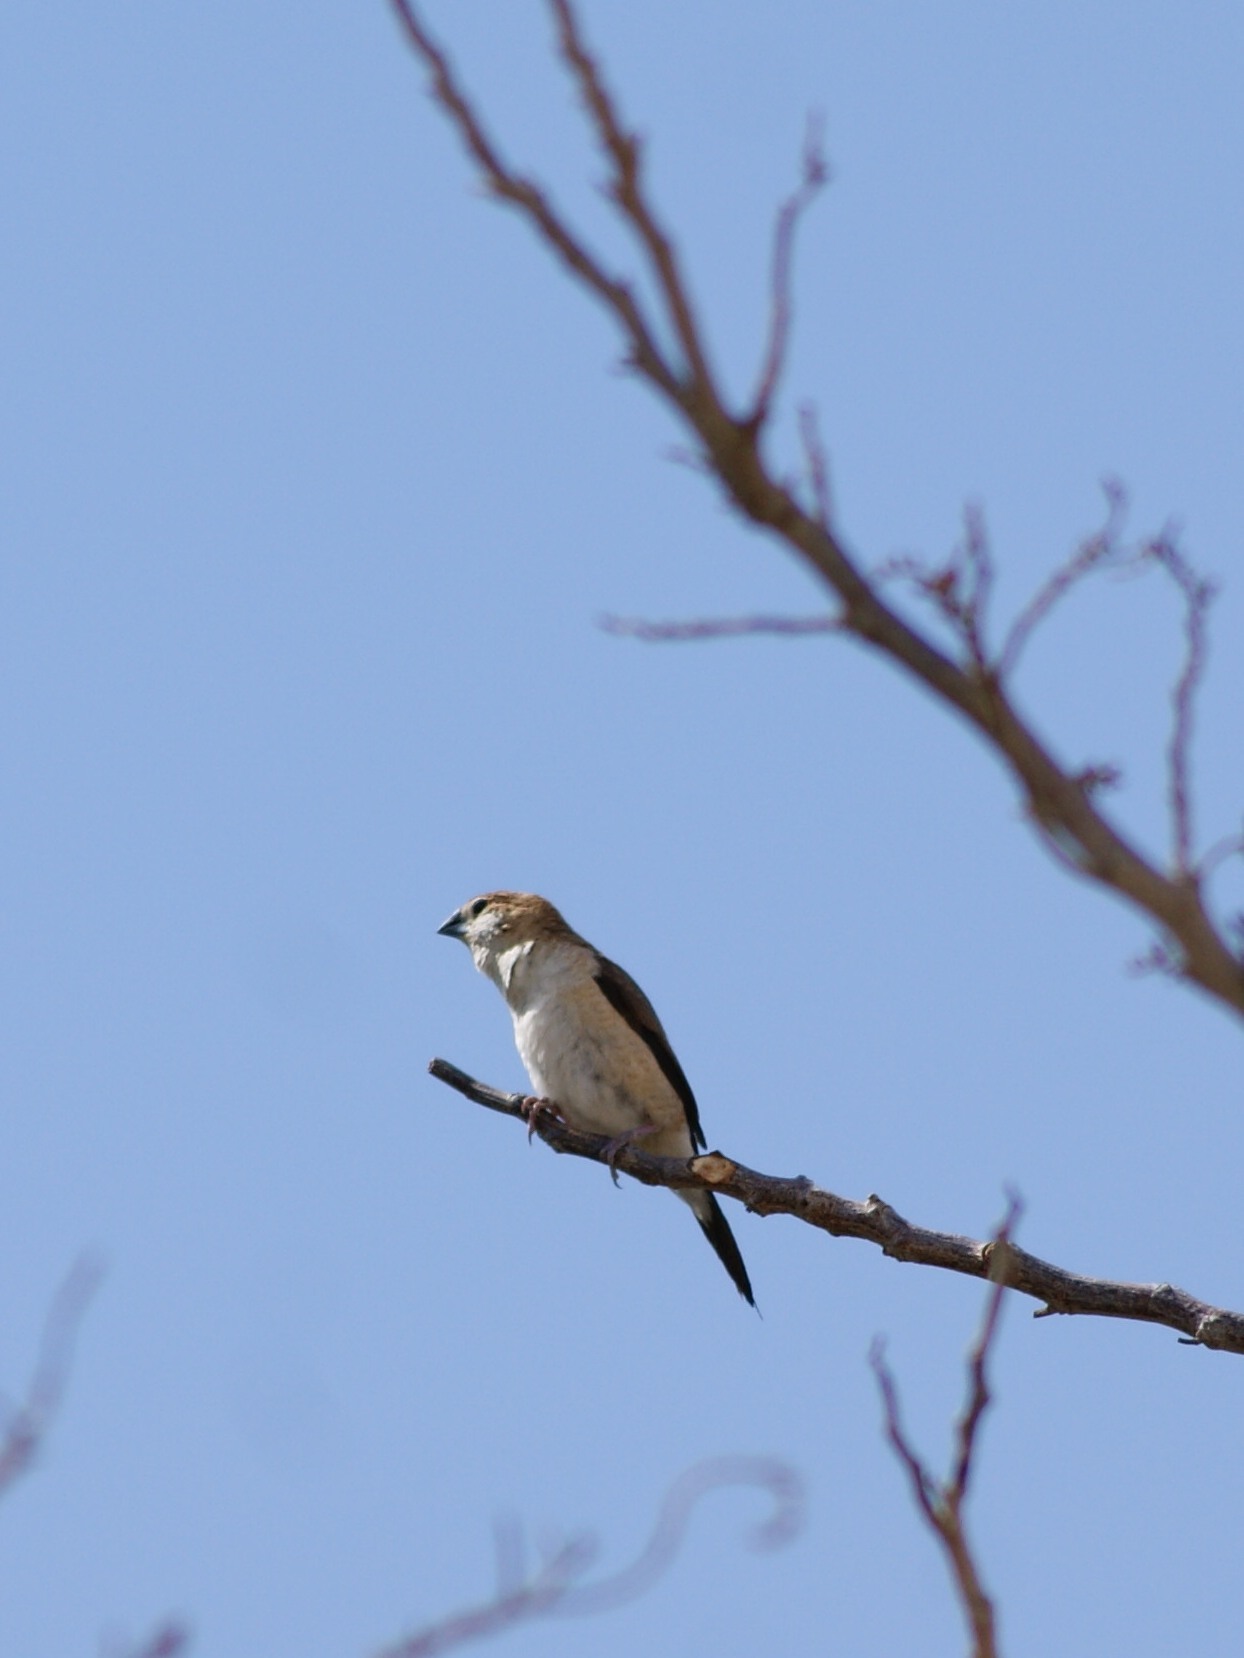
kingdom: Animalia
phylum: Chordata
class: Aves
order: Passeriformes
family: Estrildidae
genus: Euodice
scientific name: Euodice malabarica
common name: Indian silverbill
